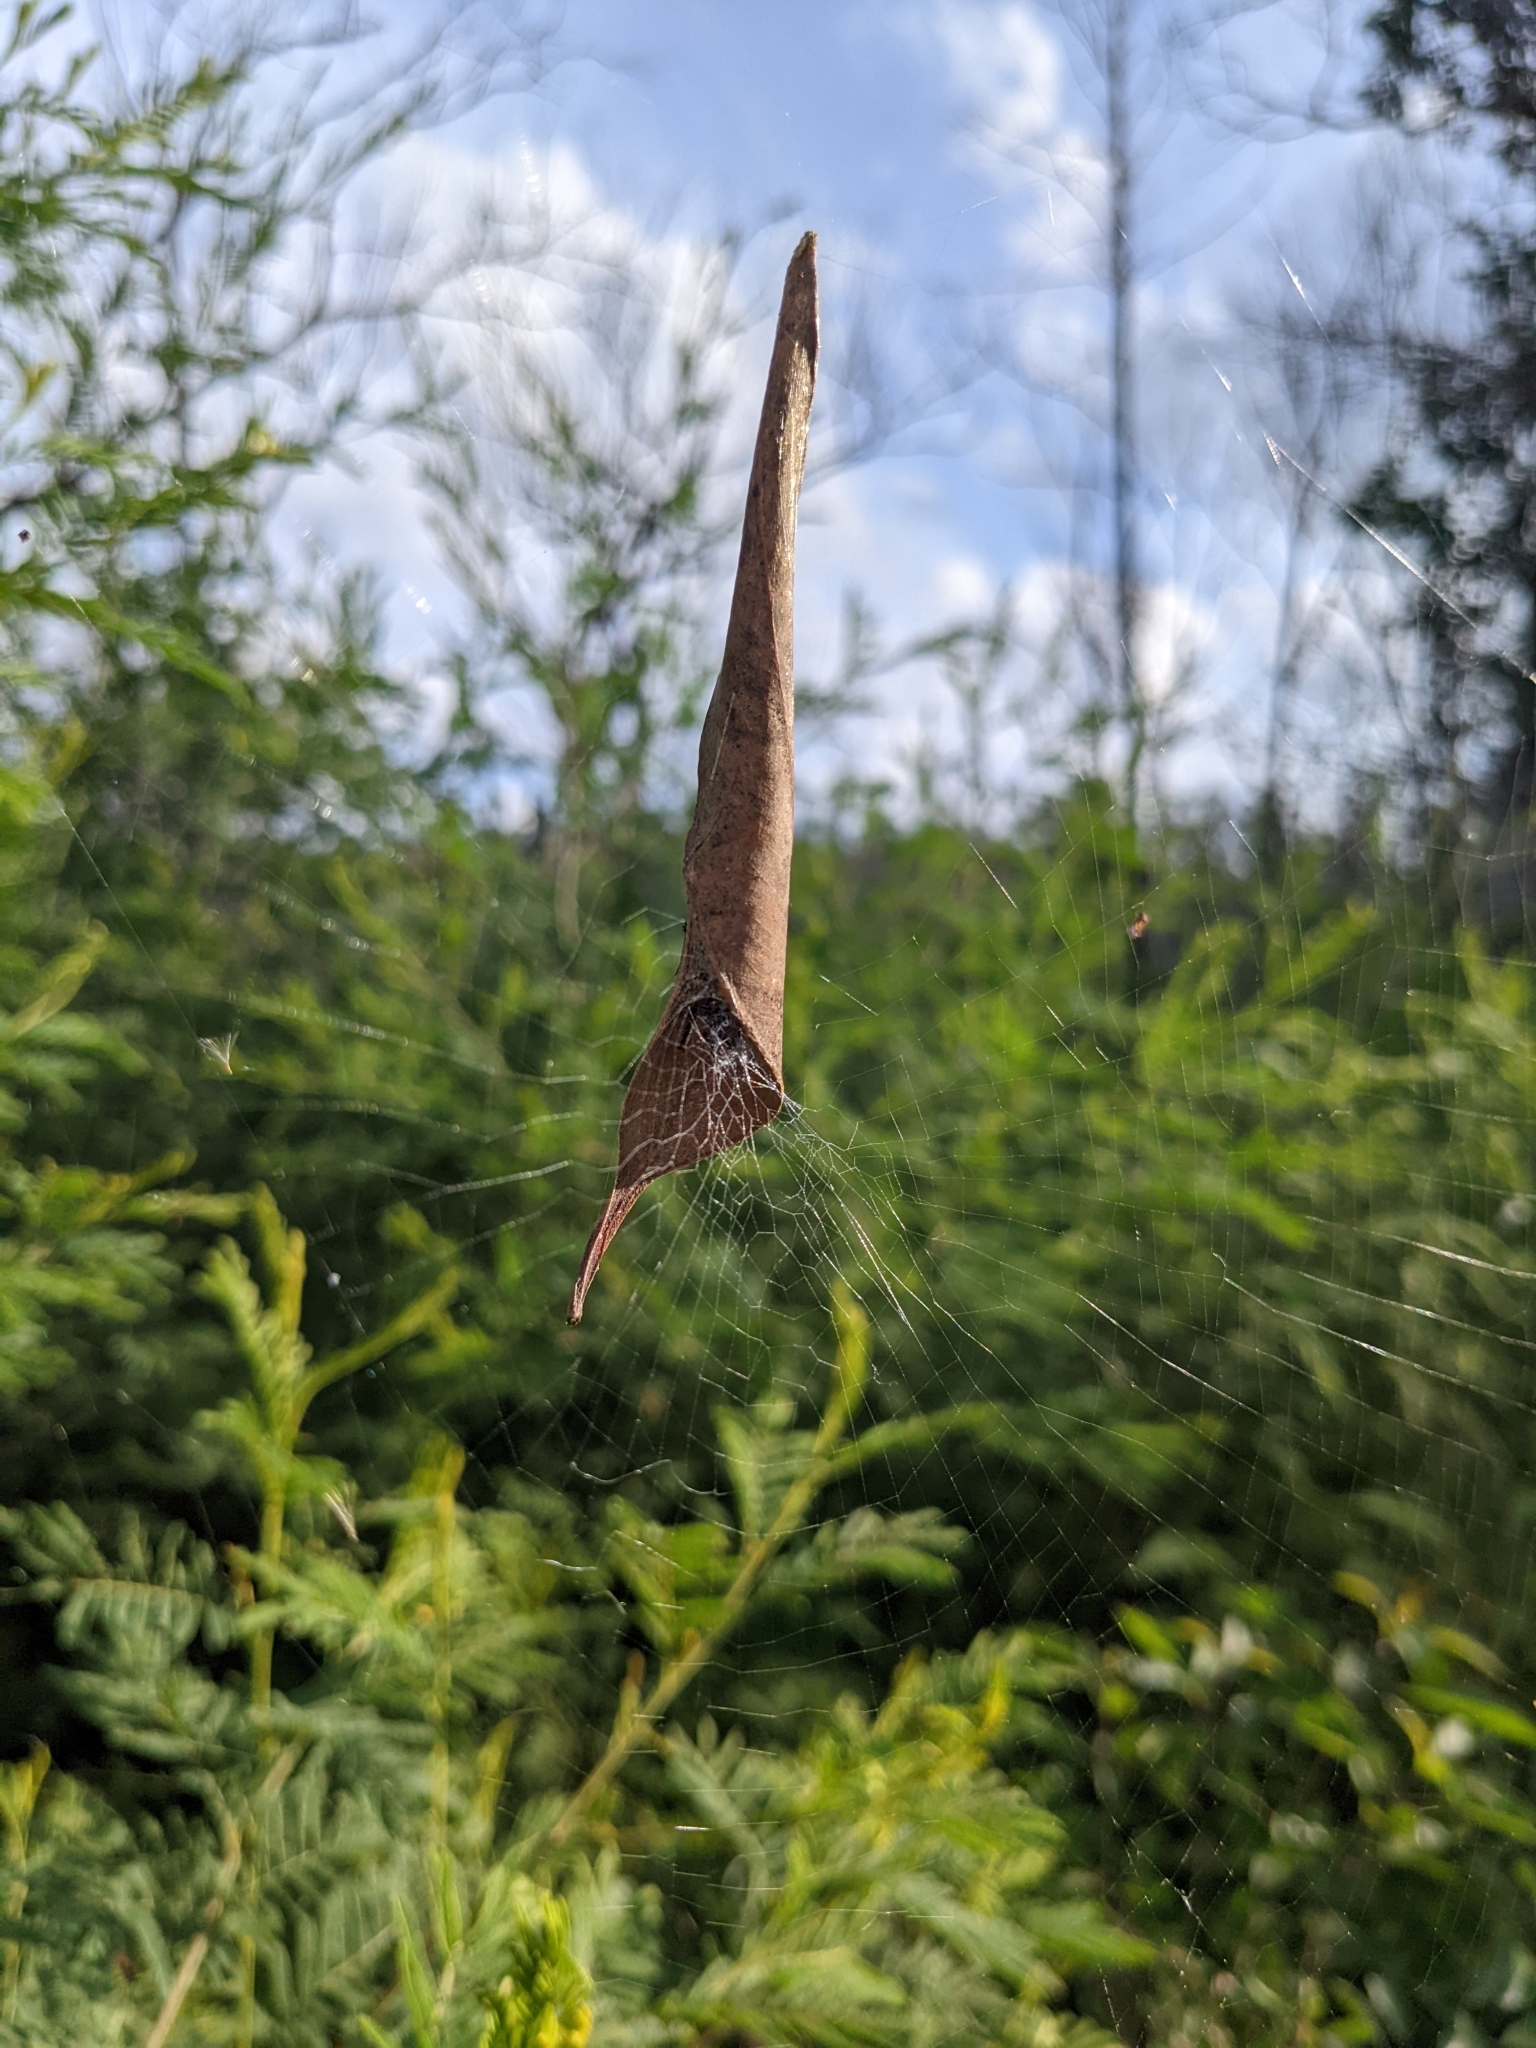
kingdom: Animalia
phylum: Arthropoda
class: Arachnida
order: Araneae
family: Araneidae
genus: Phonognatha
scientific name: Phonognatha graeffei
